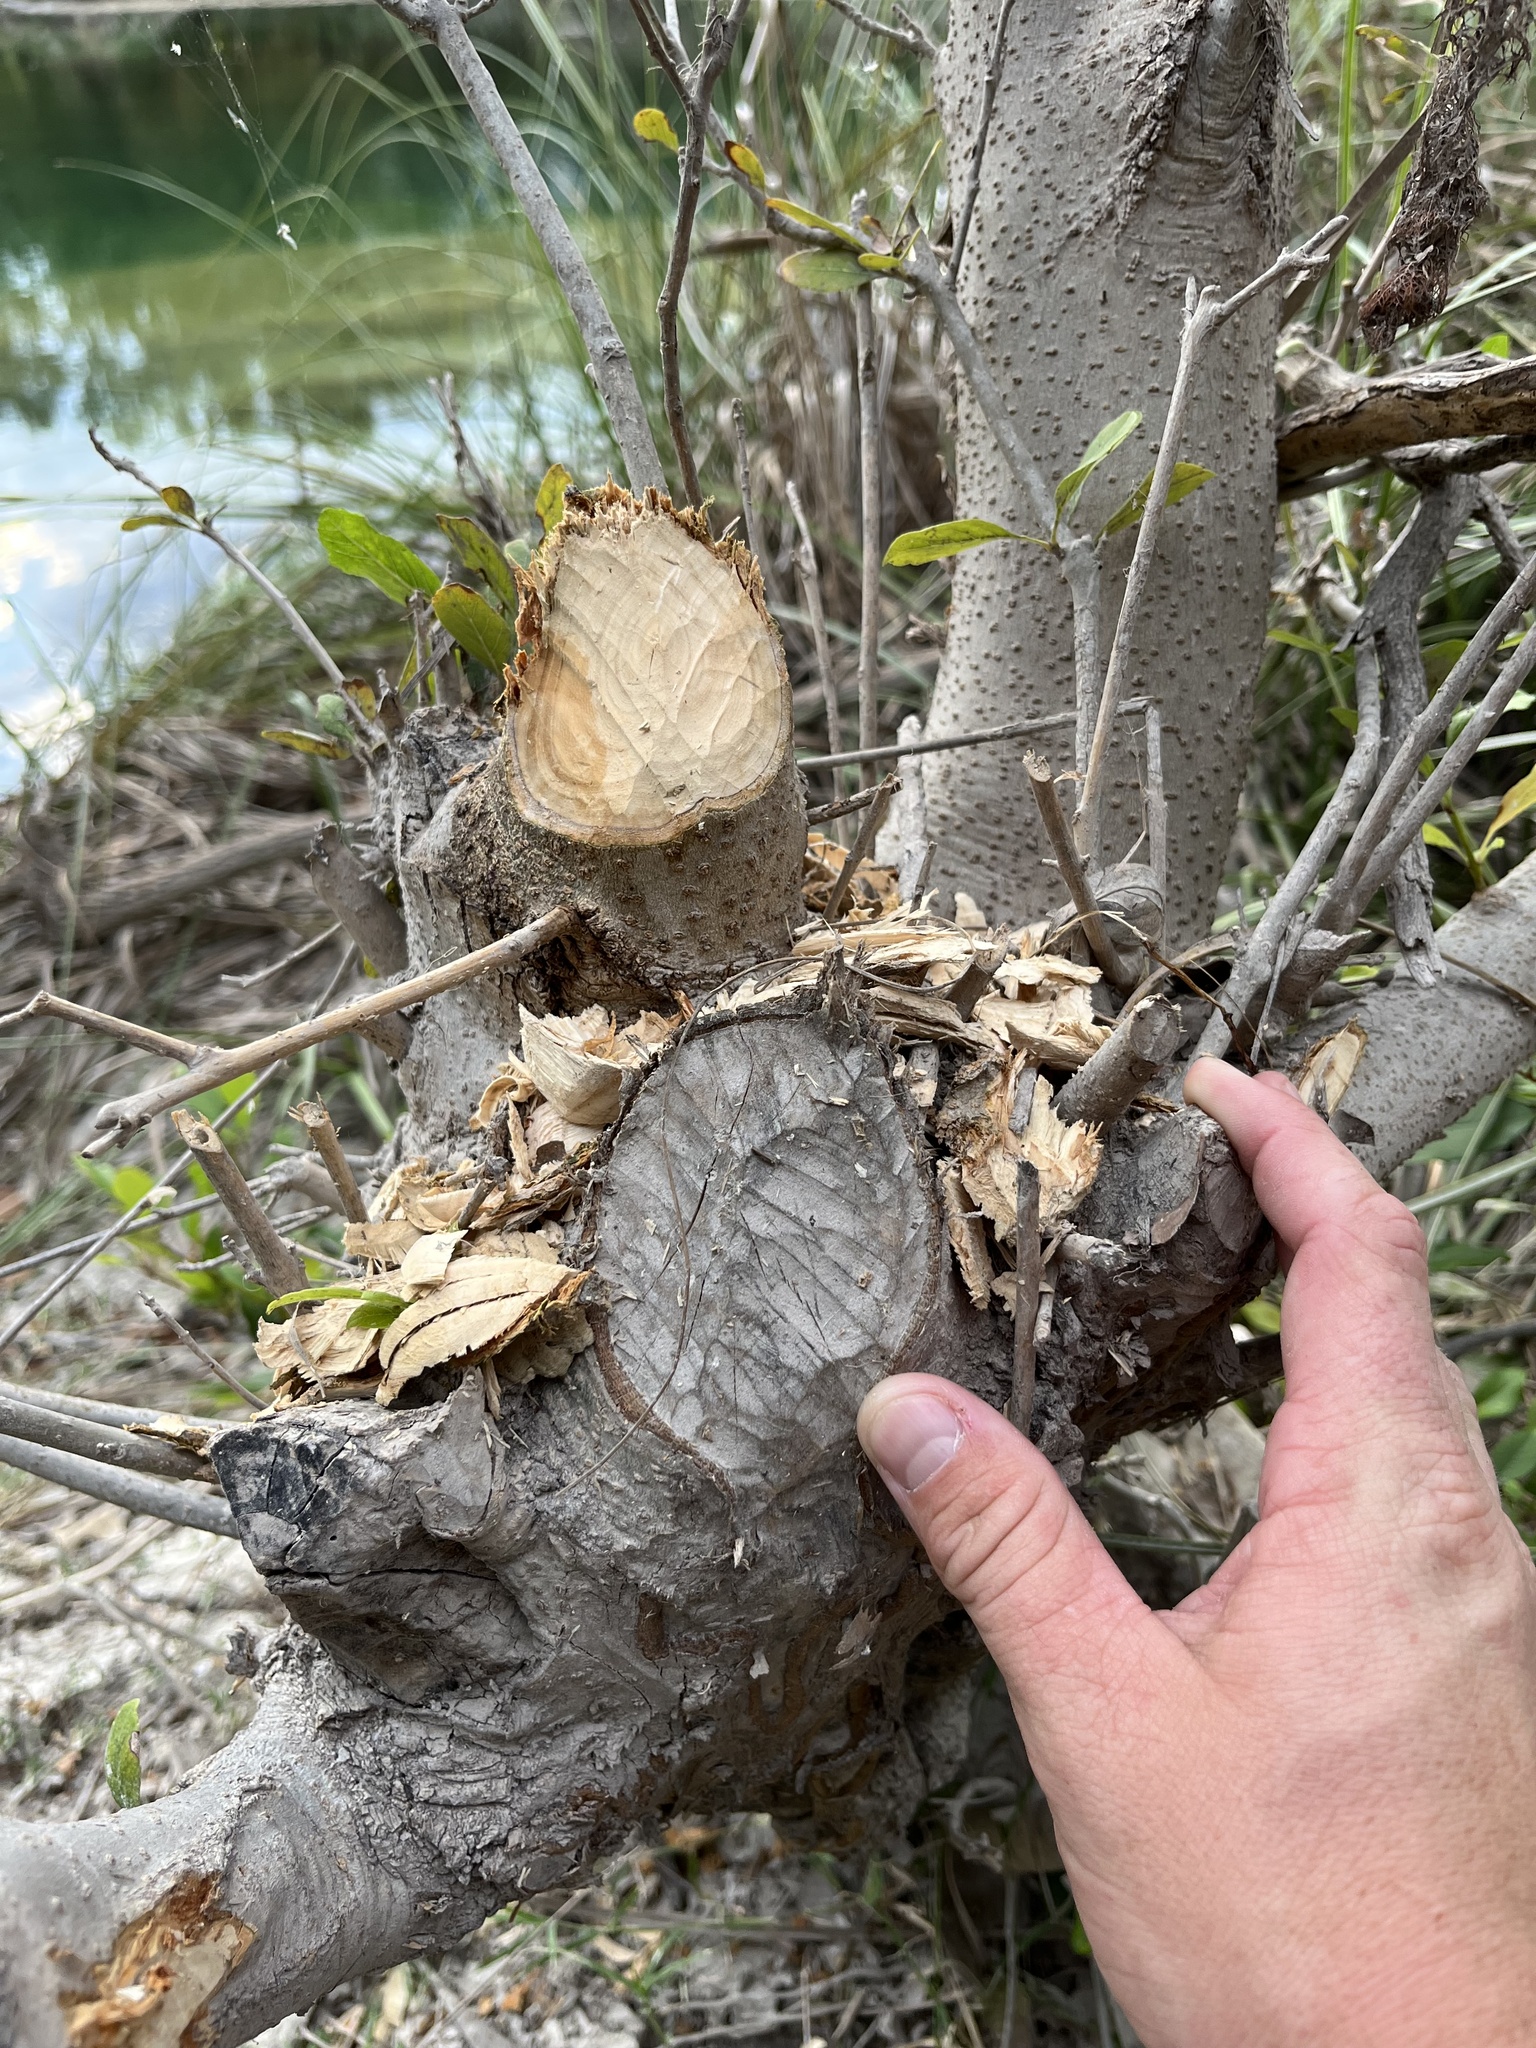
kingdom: Animalia
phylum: Chordata
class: Mammalia
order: Rodentia
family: Castoridae
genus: Castor
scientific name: Castor canadensis
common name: American beaver
